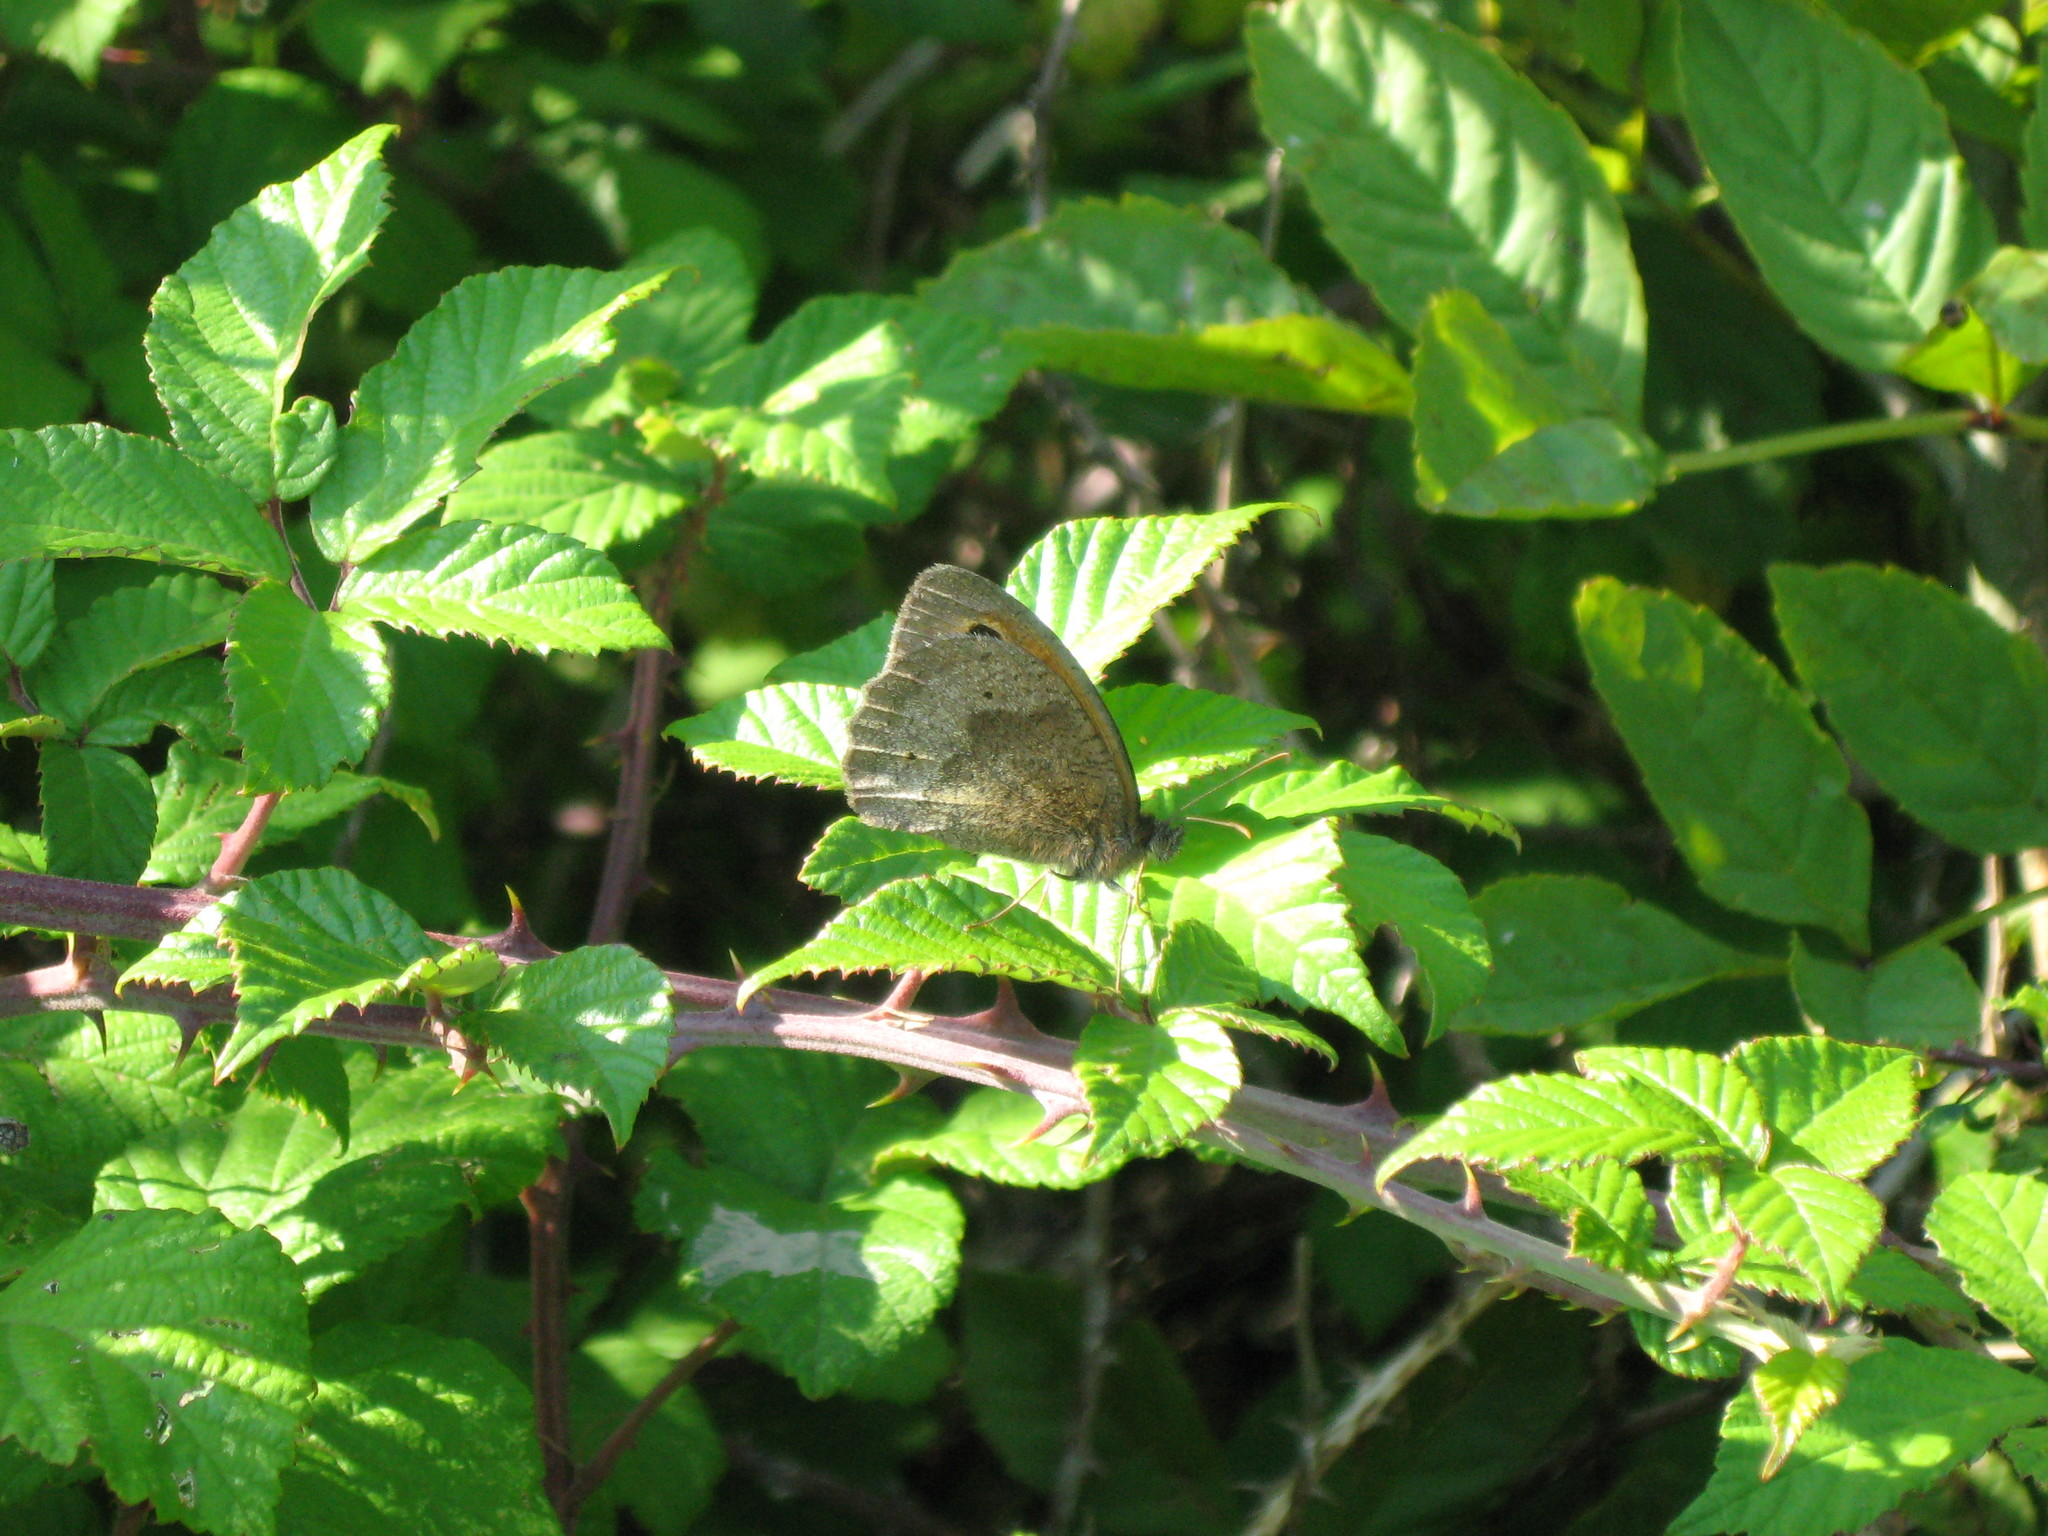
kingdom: Animalia
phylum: Arthropoda
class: Insecta
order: Lepidoptera
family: Nymphalidae
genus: Maniola
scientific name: Maniola jurtina
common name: Meadow brown
